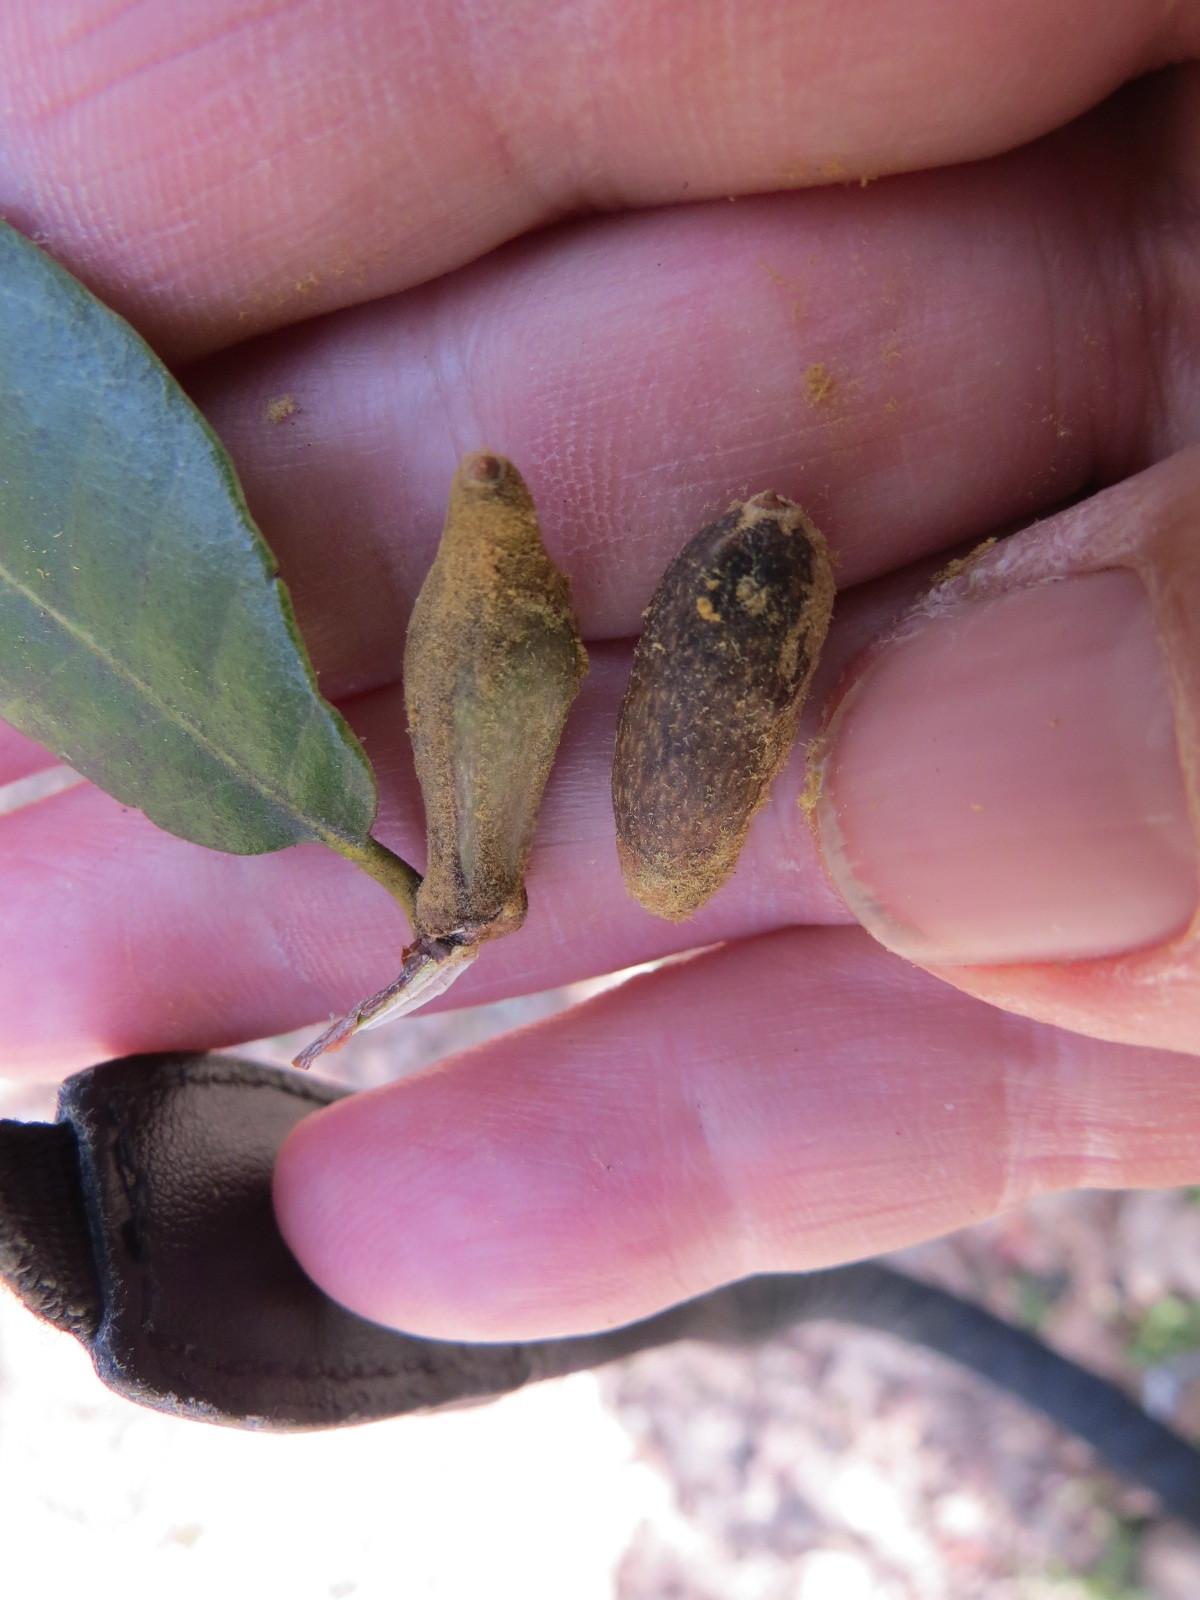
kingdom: Animalia
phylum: Arthropoda
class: Insecta
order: Hymenoptera
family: Cynipidae
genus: Heteroecus
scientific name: Heteroecus
